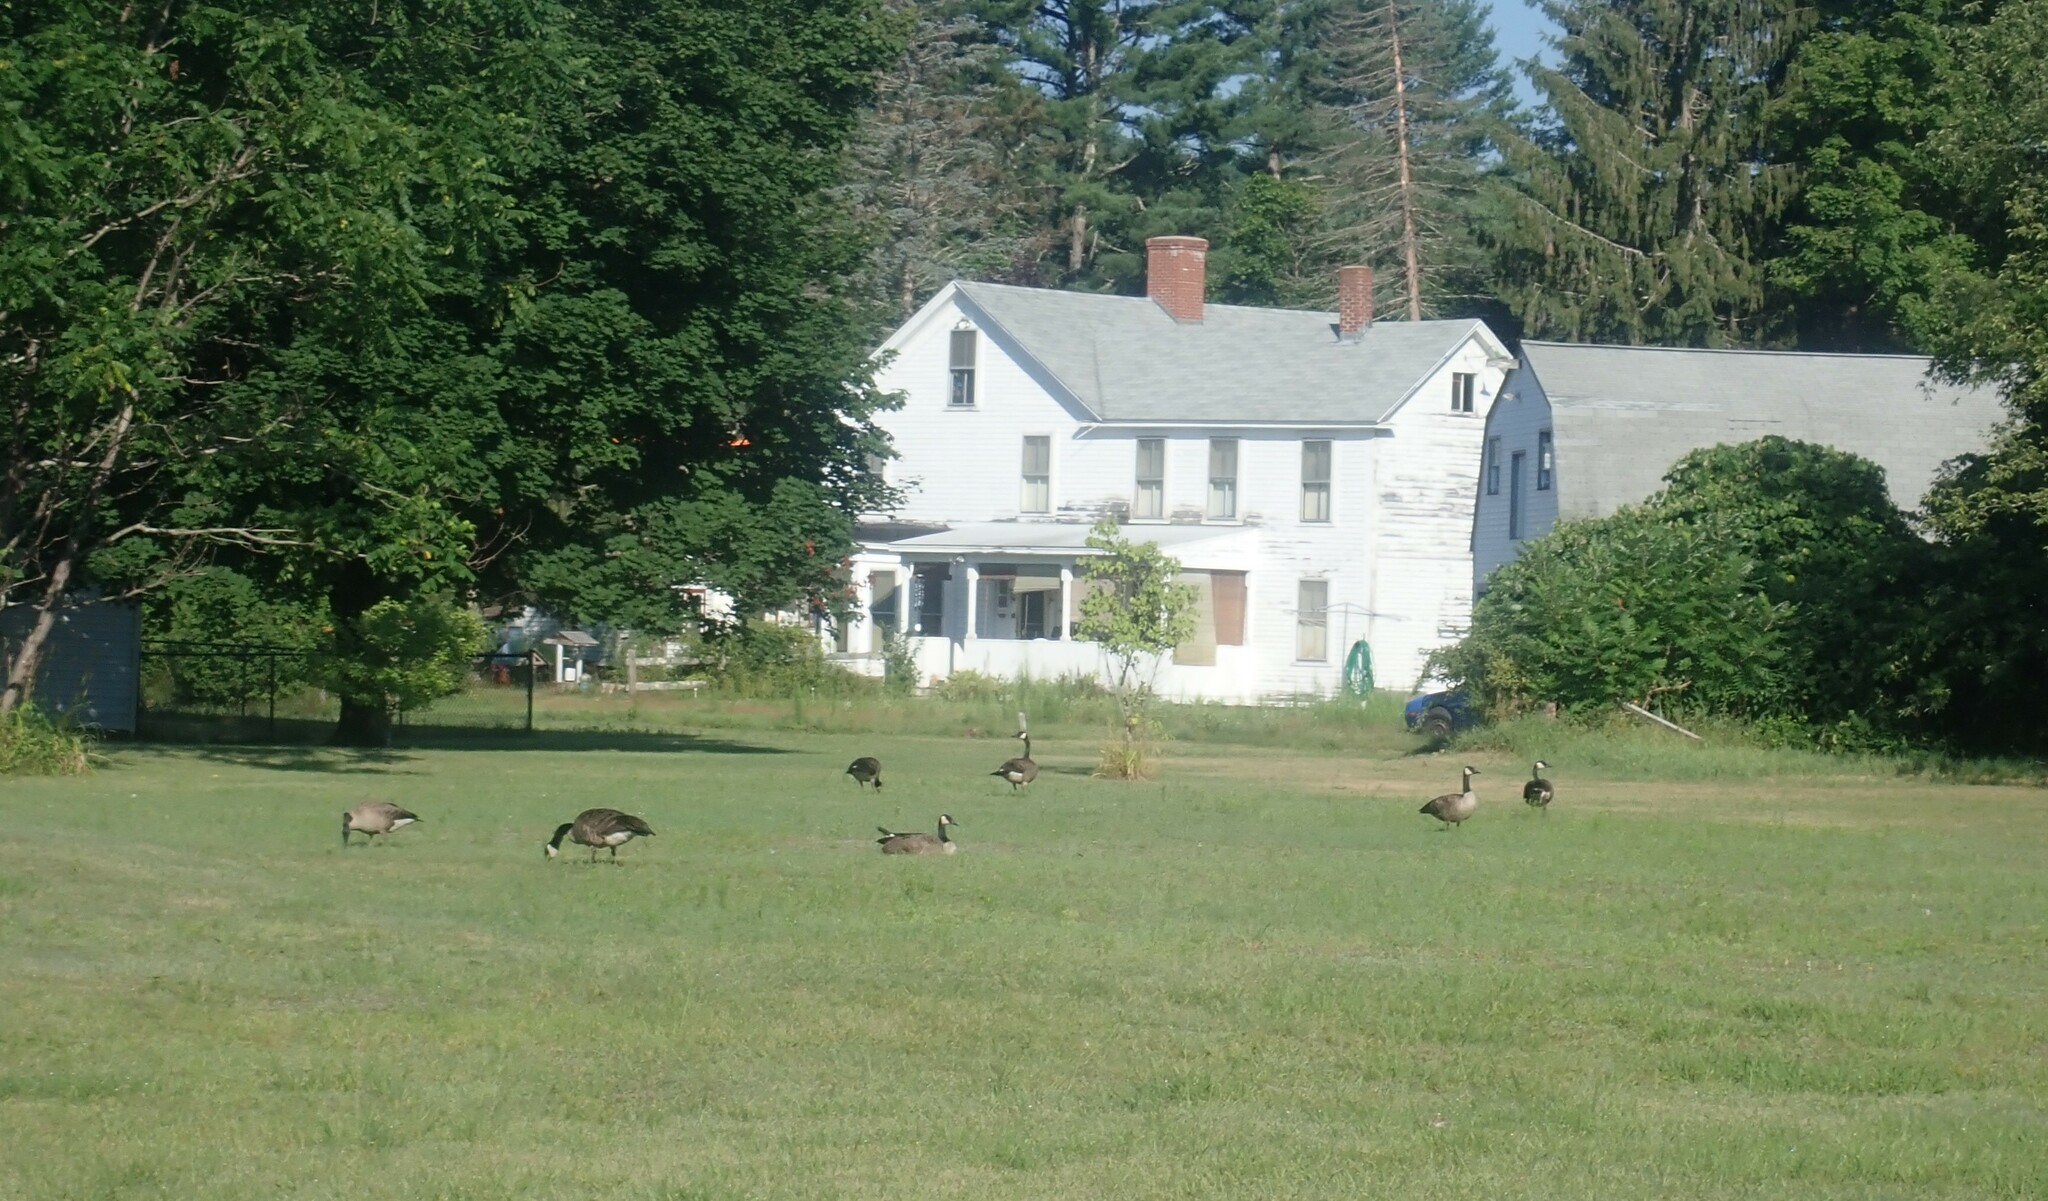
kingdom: Animalia
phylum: Chordata
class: Aves
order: Anseriformes
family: Anatidae
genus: Branta
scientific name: Branta canadensis
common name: Canada goose
